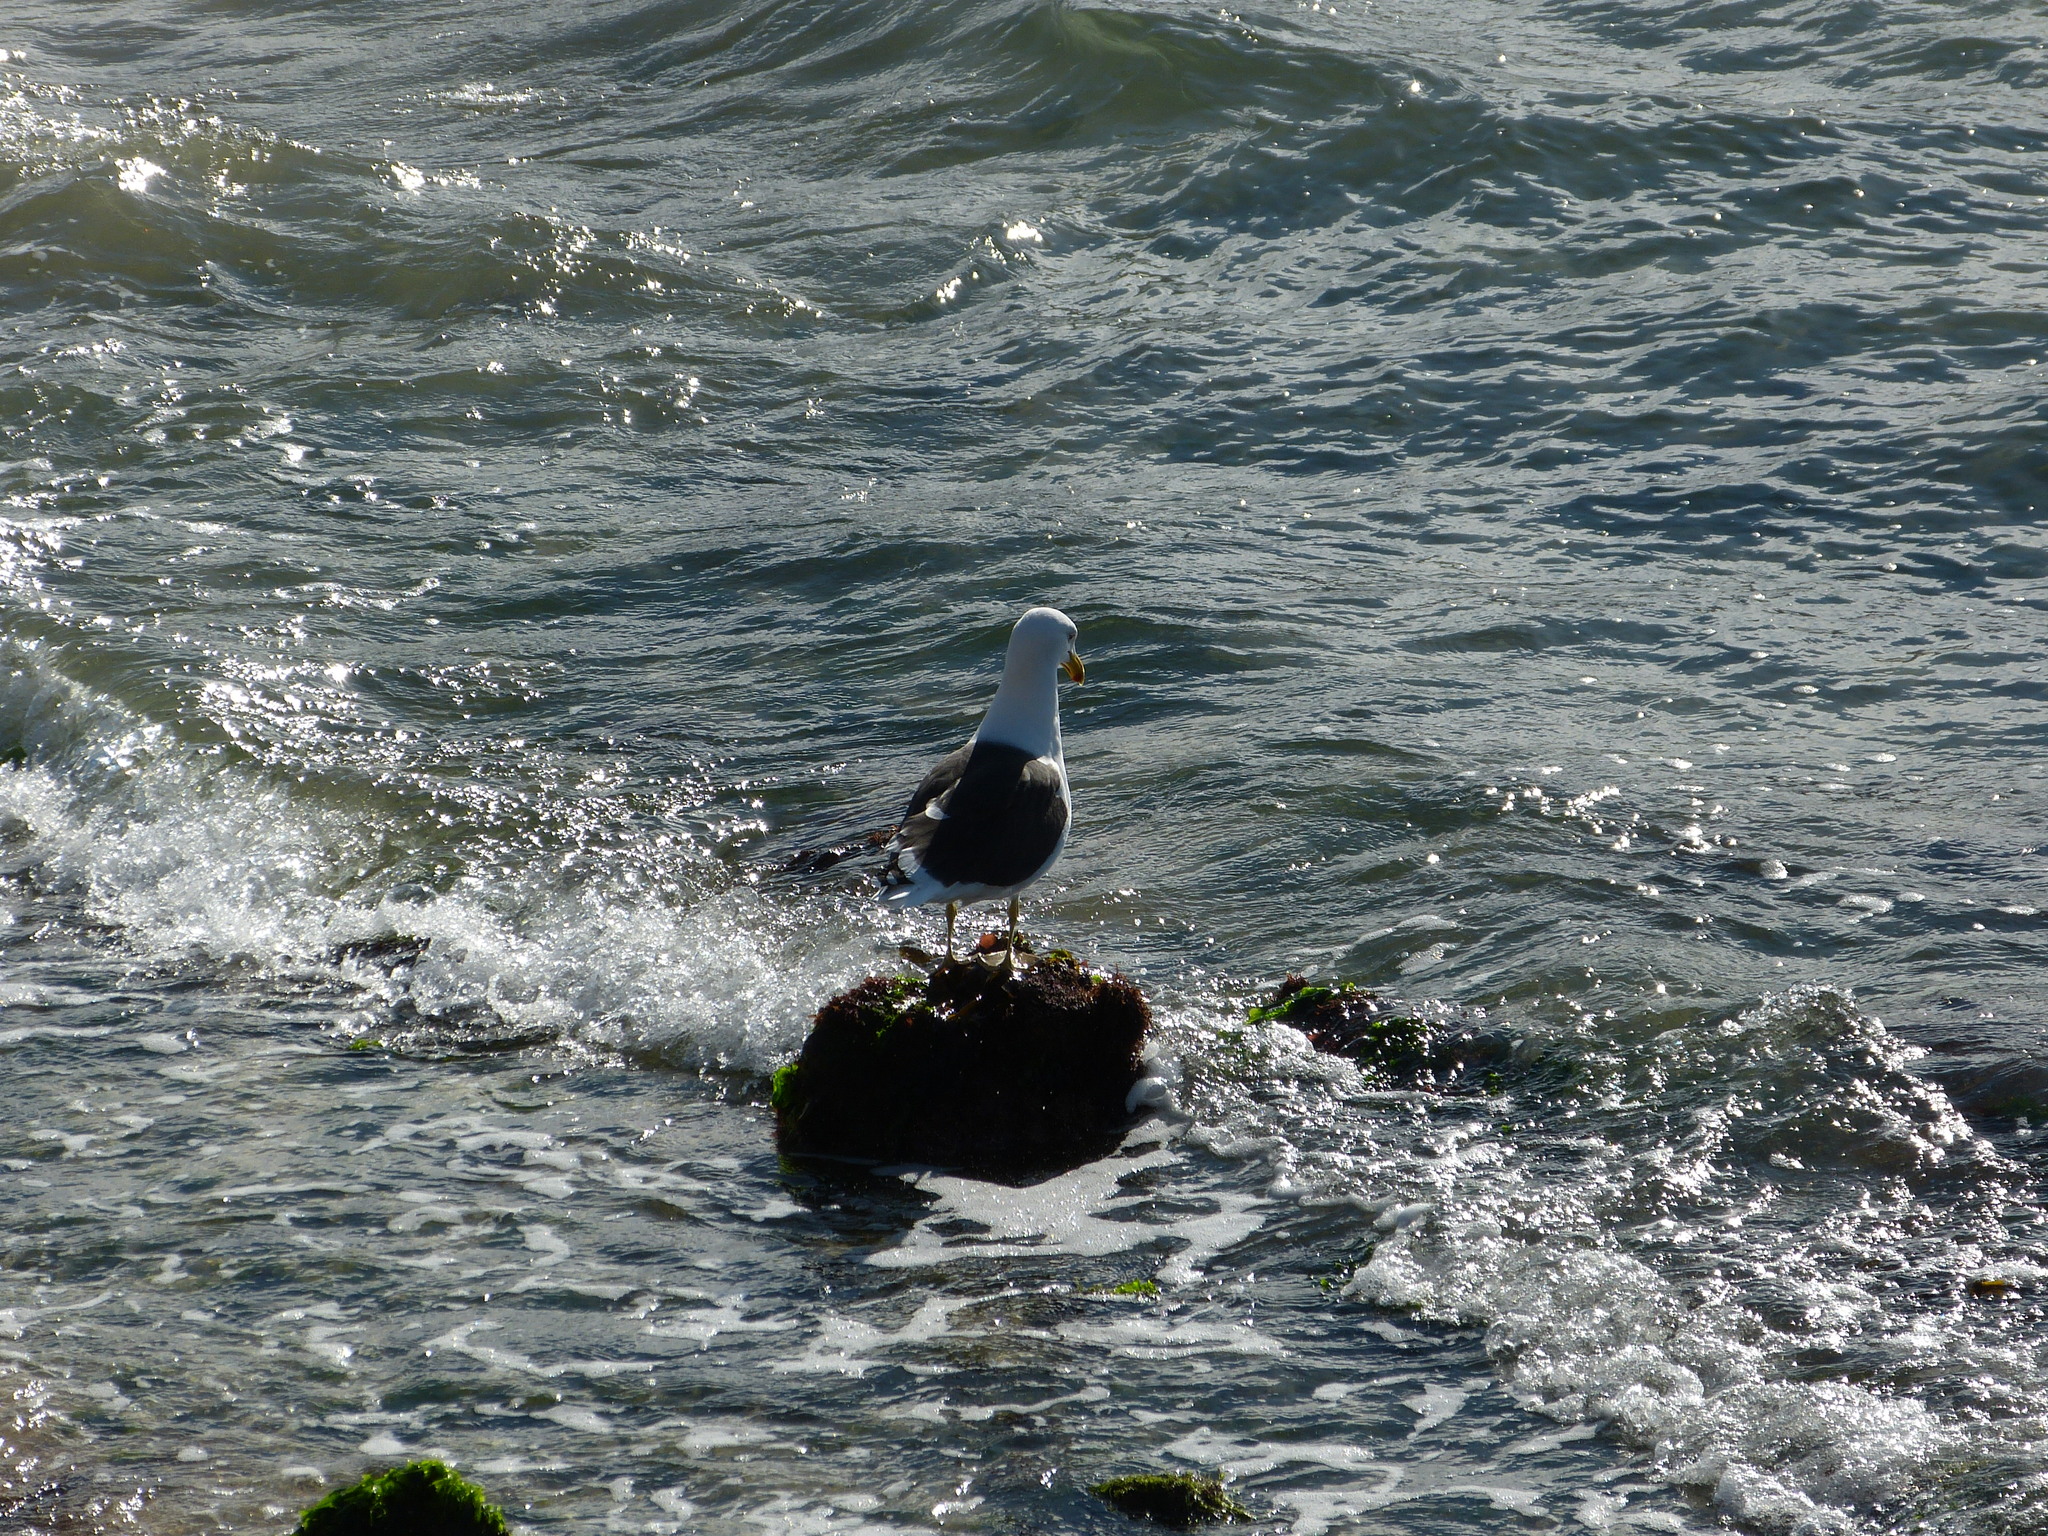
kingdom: Animalia
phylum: Chordata
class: Aves
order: Charadriiformes
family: Laridae
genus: Larus
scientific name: Larus dominicanus
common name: Kelp gull
